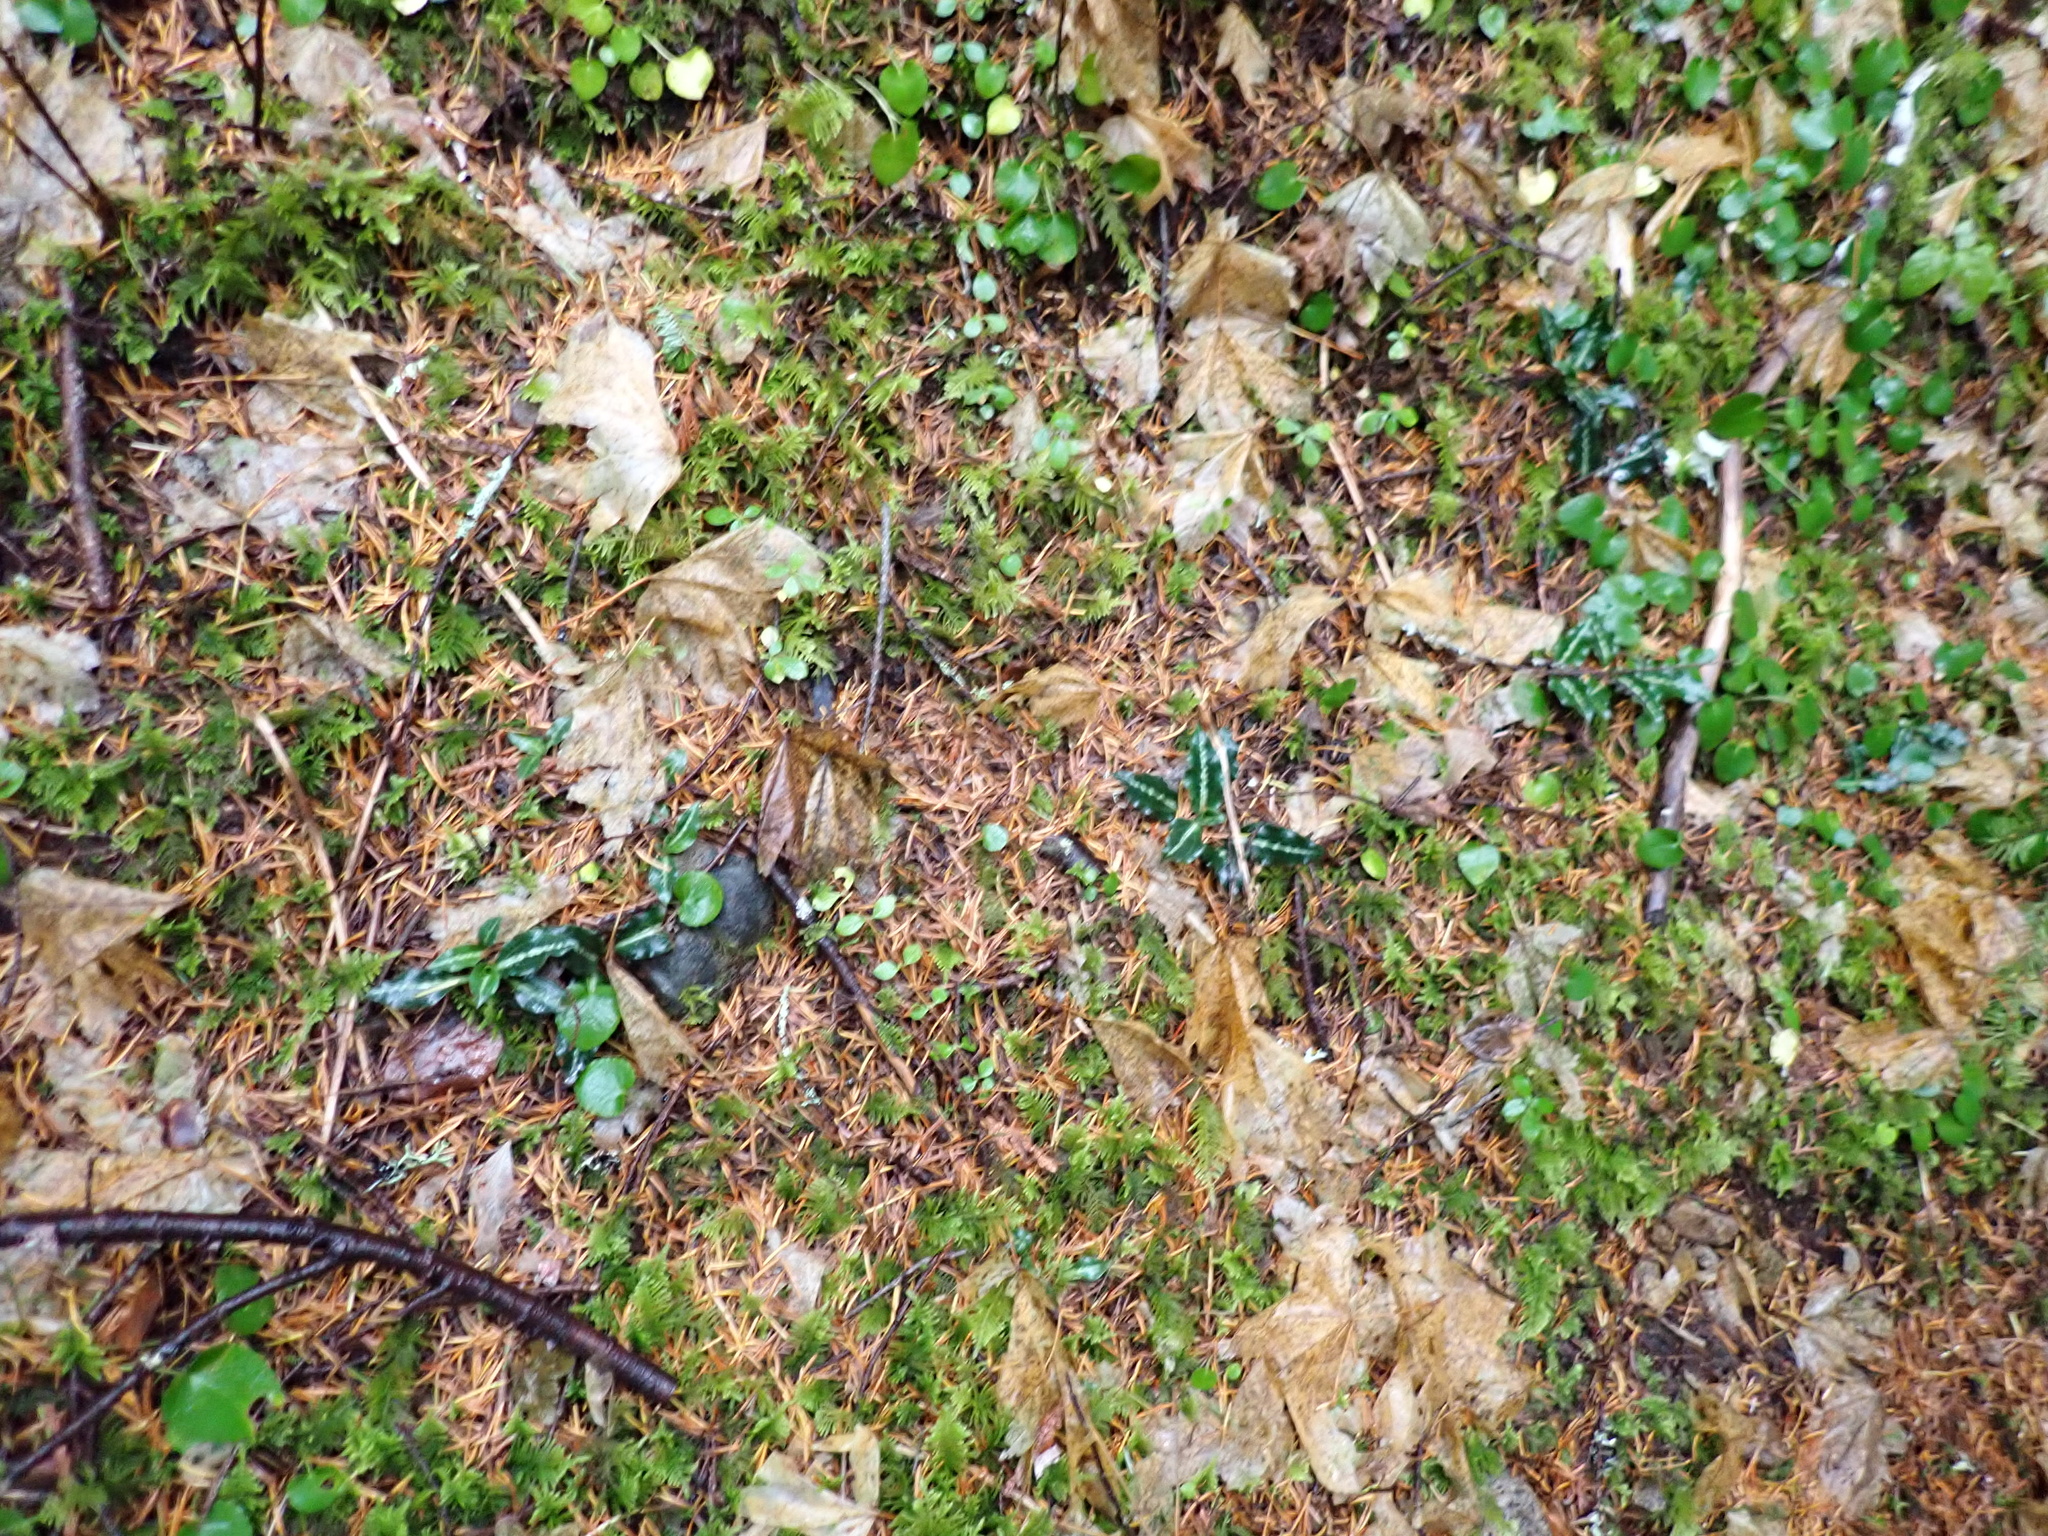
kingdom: Plantae
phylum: Tracheophyta
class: Liliopsida
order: Asparagales
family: Orchidaceae
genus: Goodyera
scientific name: Goodyera oblongifolia
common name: Giant rattlesnake-plantain
